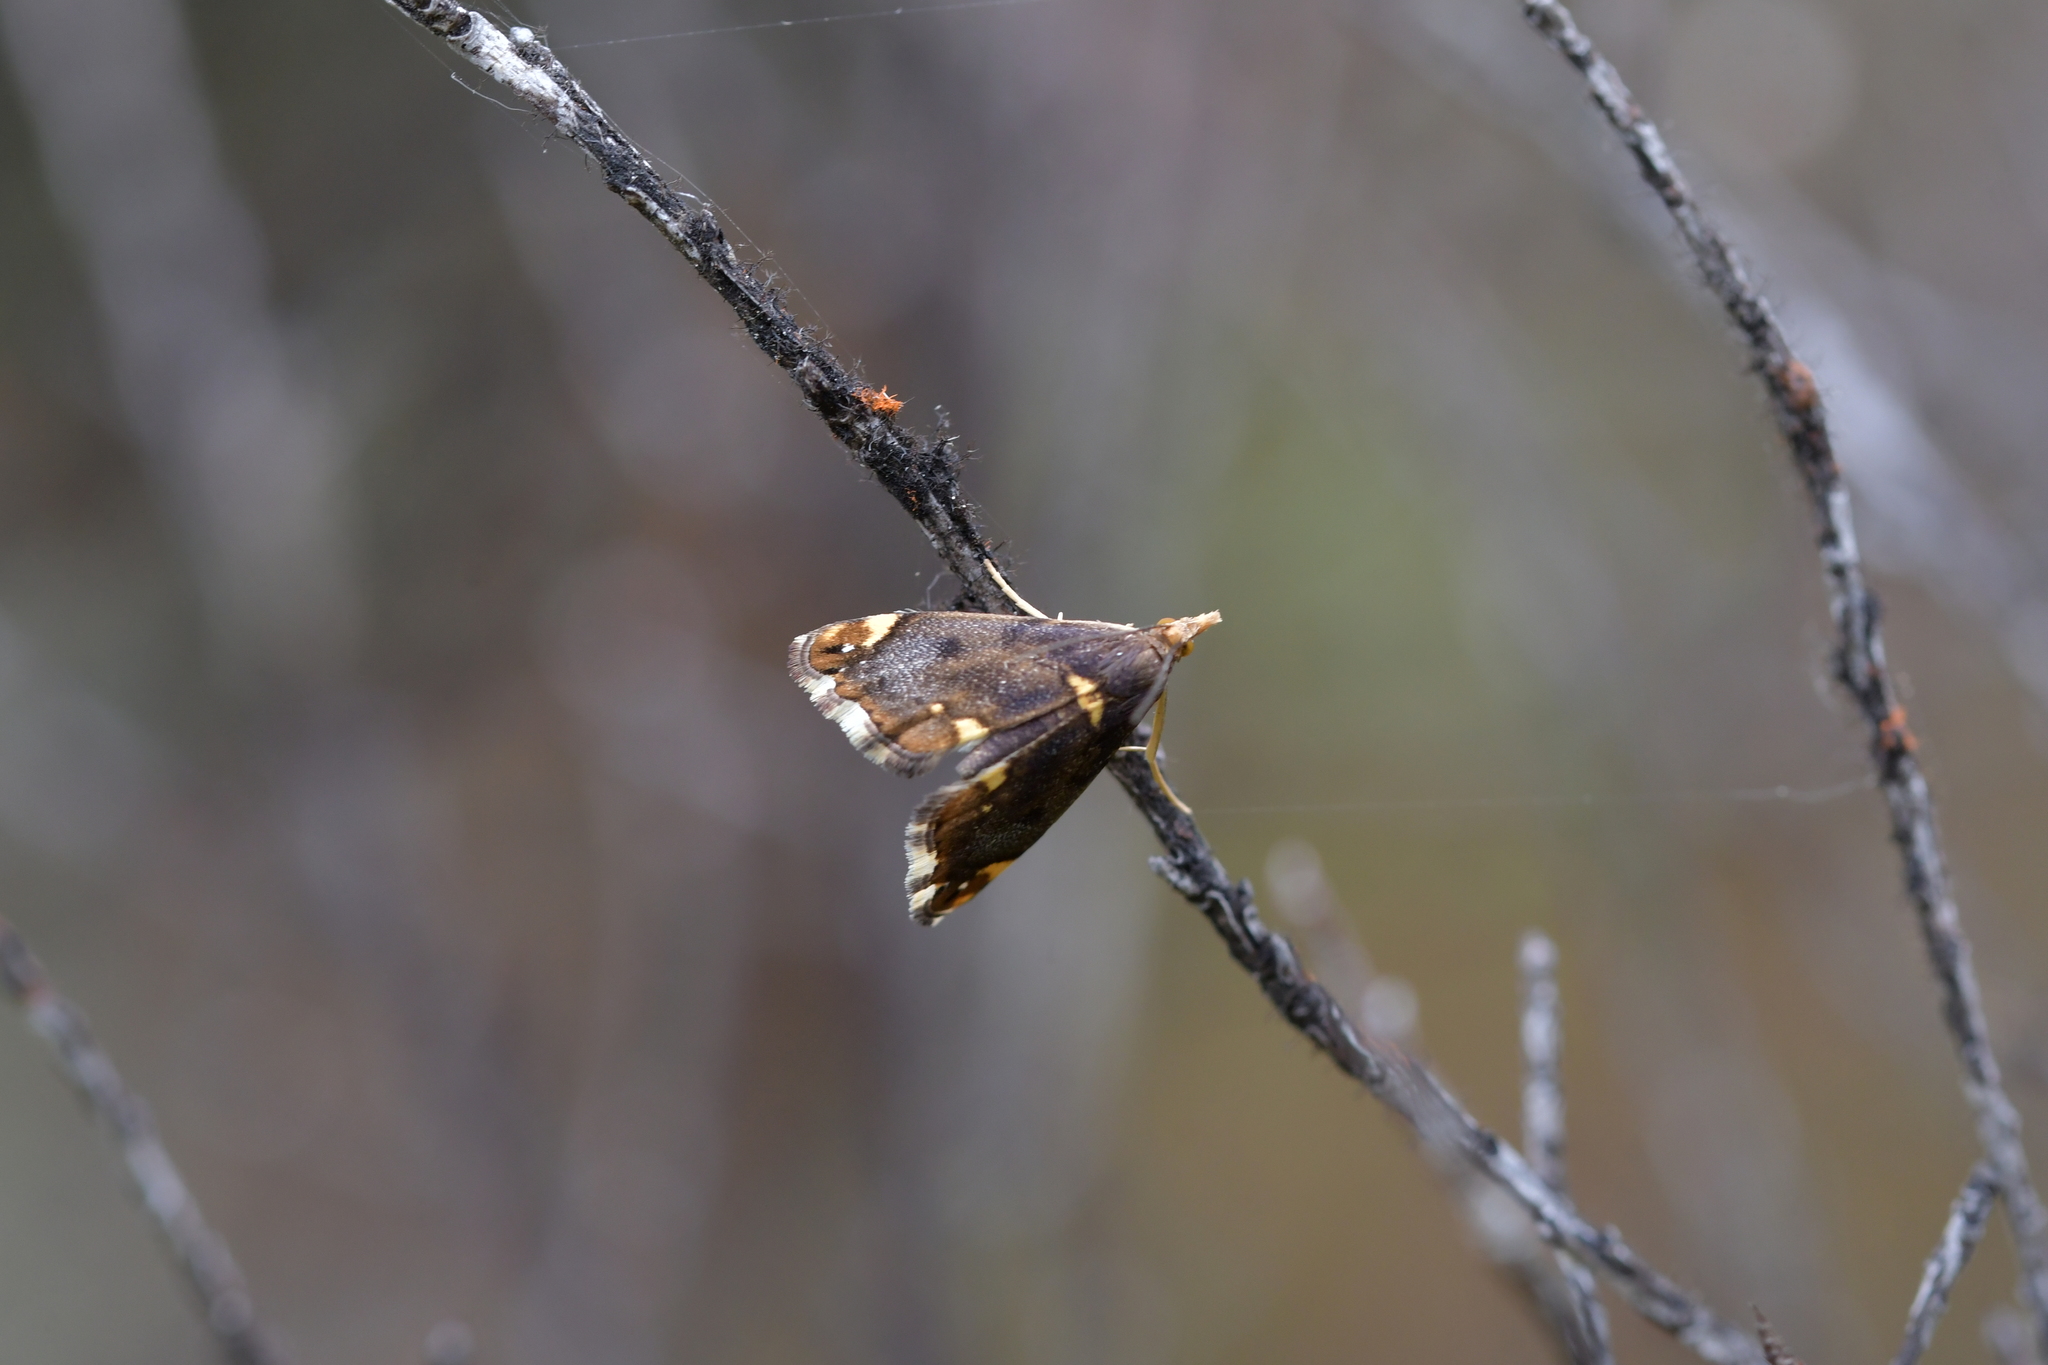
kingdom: Animalia
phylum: Arthropoda
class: Insecta
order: Lepidoptera
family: Crambidae
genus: Glaucocharis
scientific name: Glaucocharis pyrsophanes
